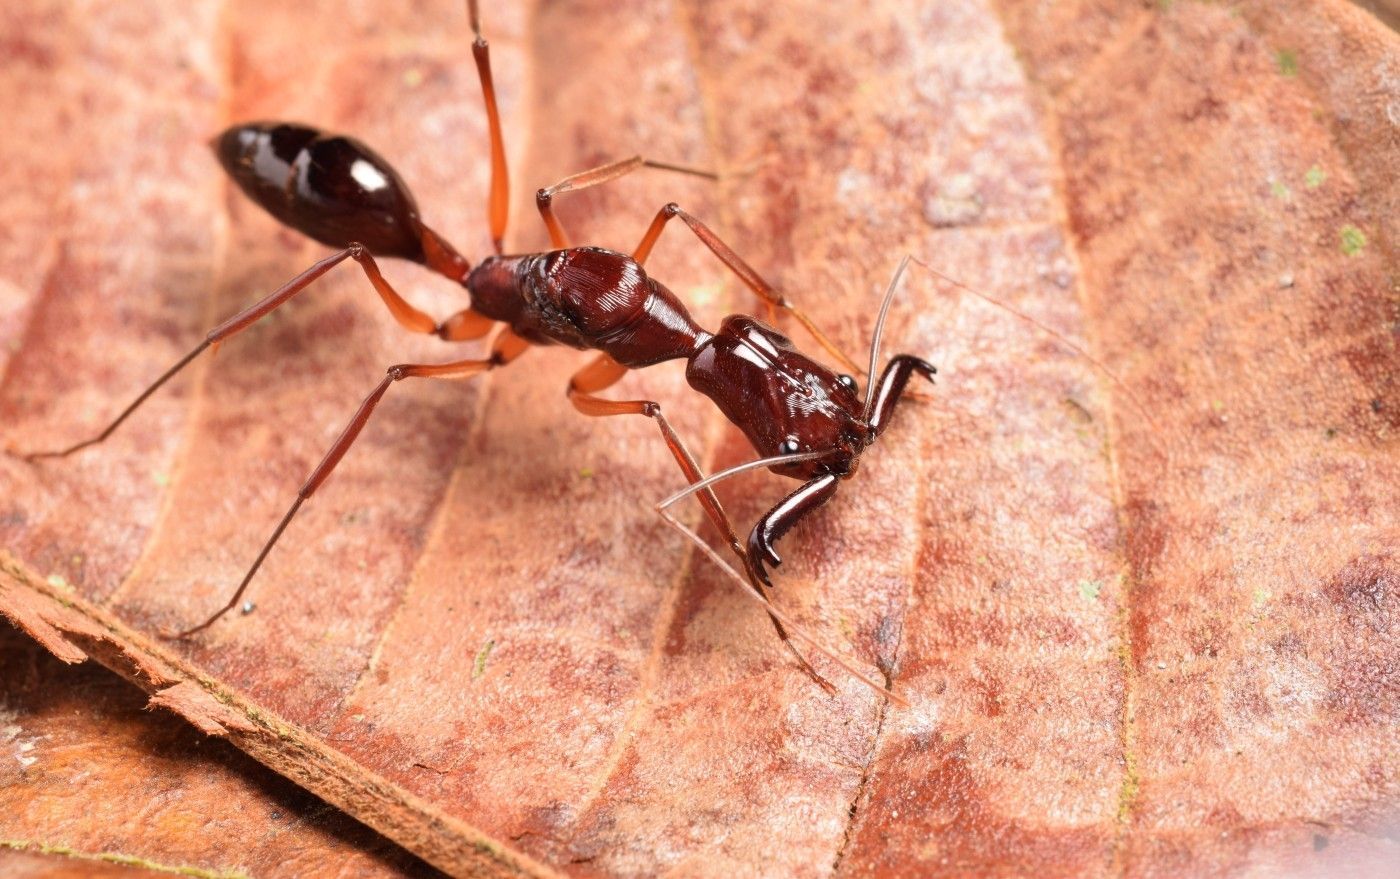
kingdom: Animalia
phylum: Arthropoda
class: Insecta
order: Hymenoptera
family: Formicidae
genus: Odontomachus
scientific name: Odontomachus mormo
